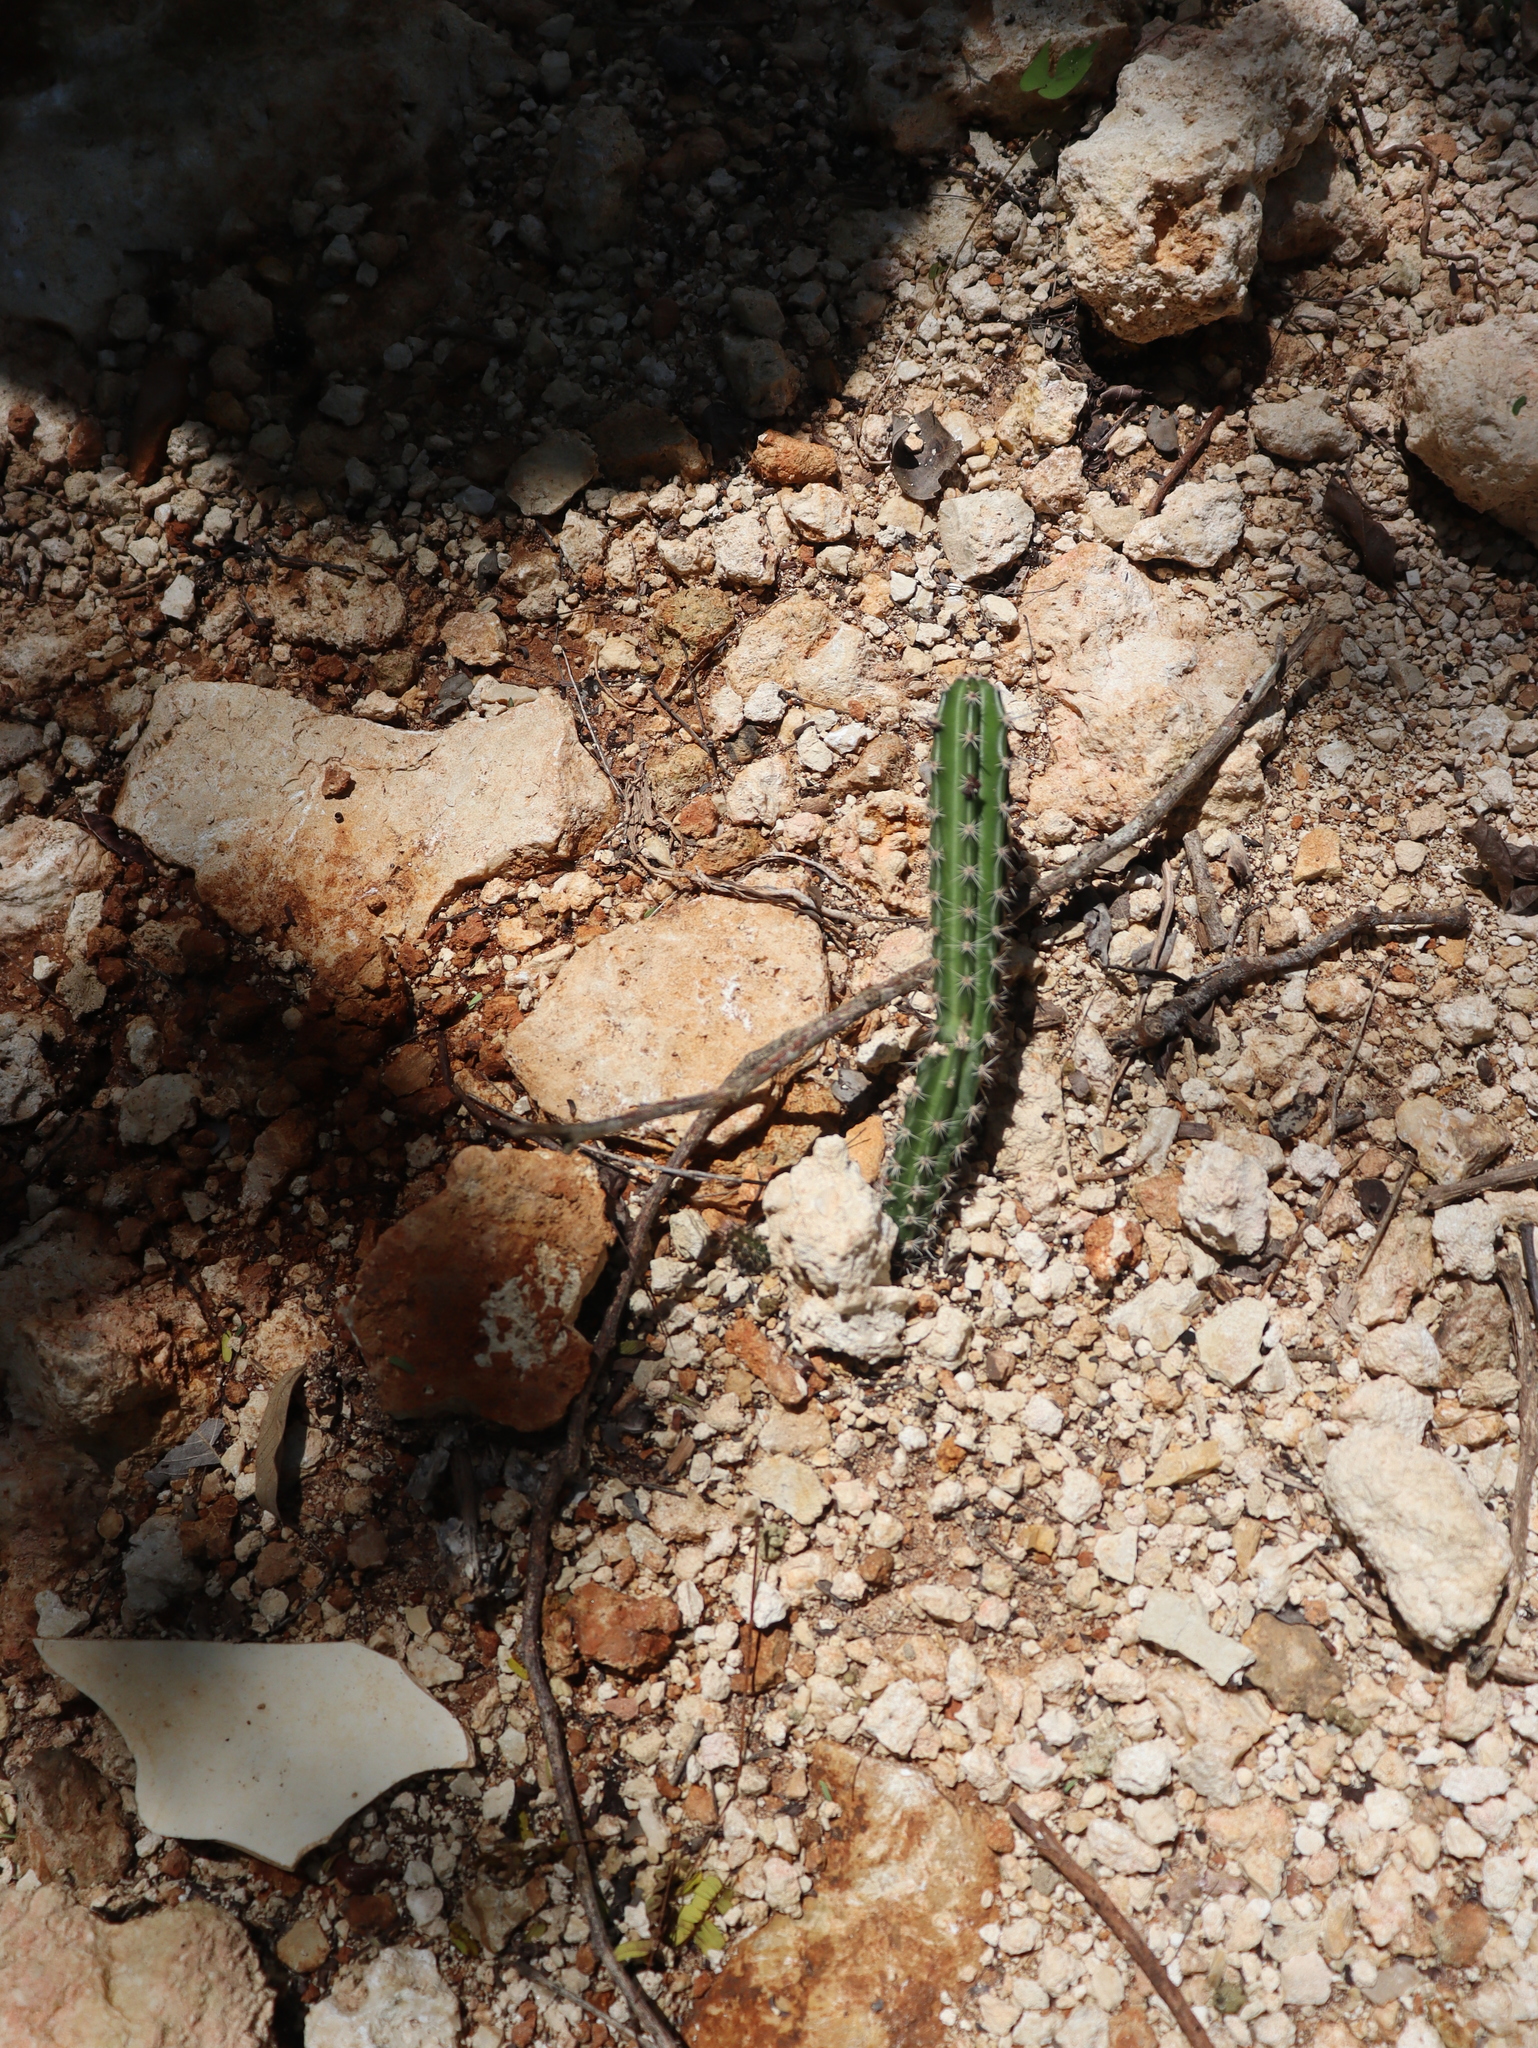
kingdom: Plantae
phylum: Tracheophyta
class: Magnoliopsida
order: Caryophyllales
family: Cactaceae
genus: Acanthocereus
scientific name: Acanthocereus tetragonus
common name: Triangle cactus
